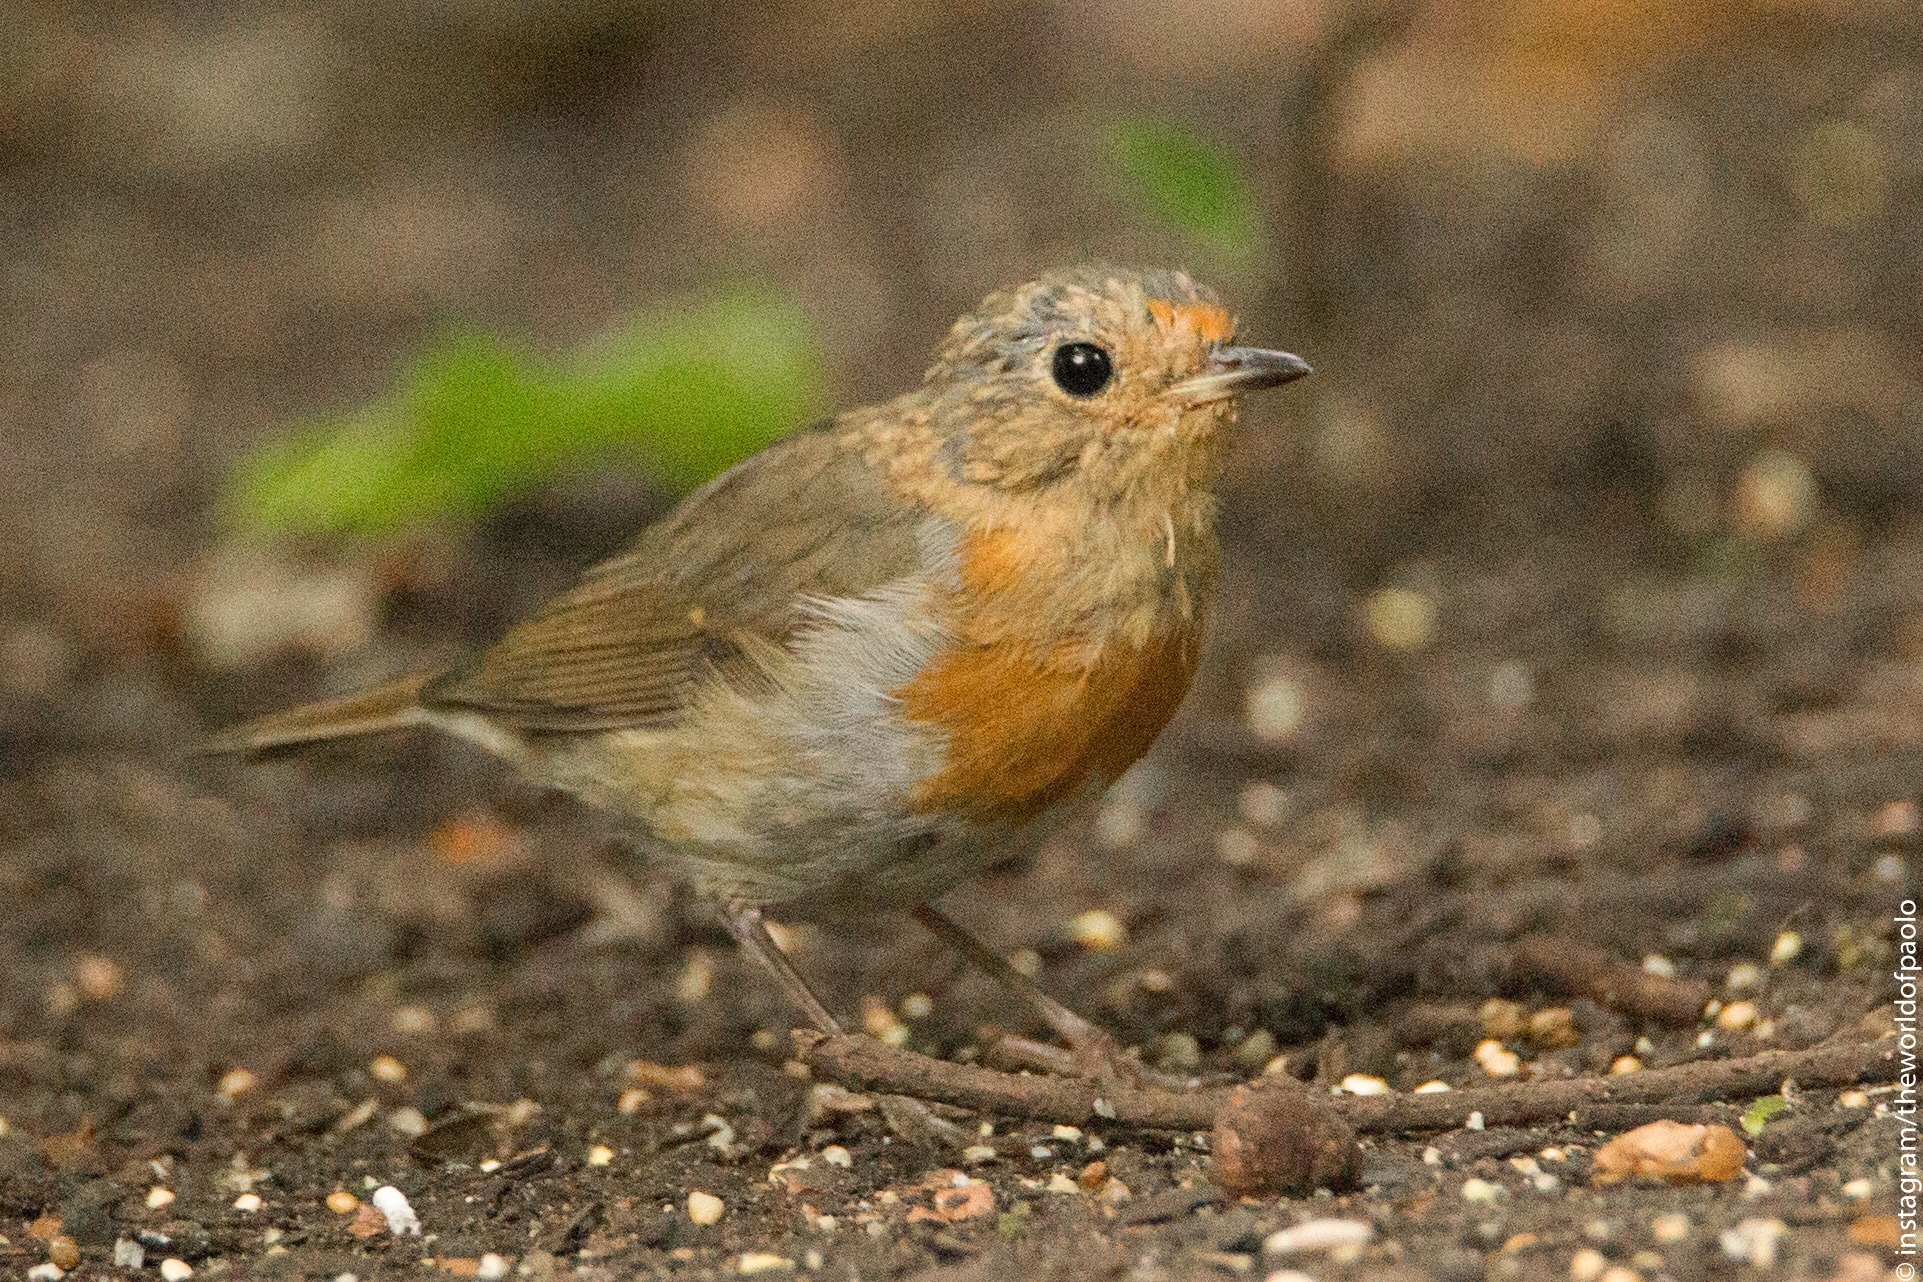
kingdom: Animalia
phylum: Chordata
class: Aves
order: Passeriformes
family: Muscicapidae
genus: Erithacus
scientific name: Erithacus rubecula
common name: European robin
